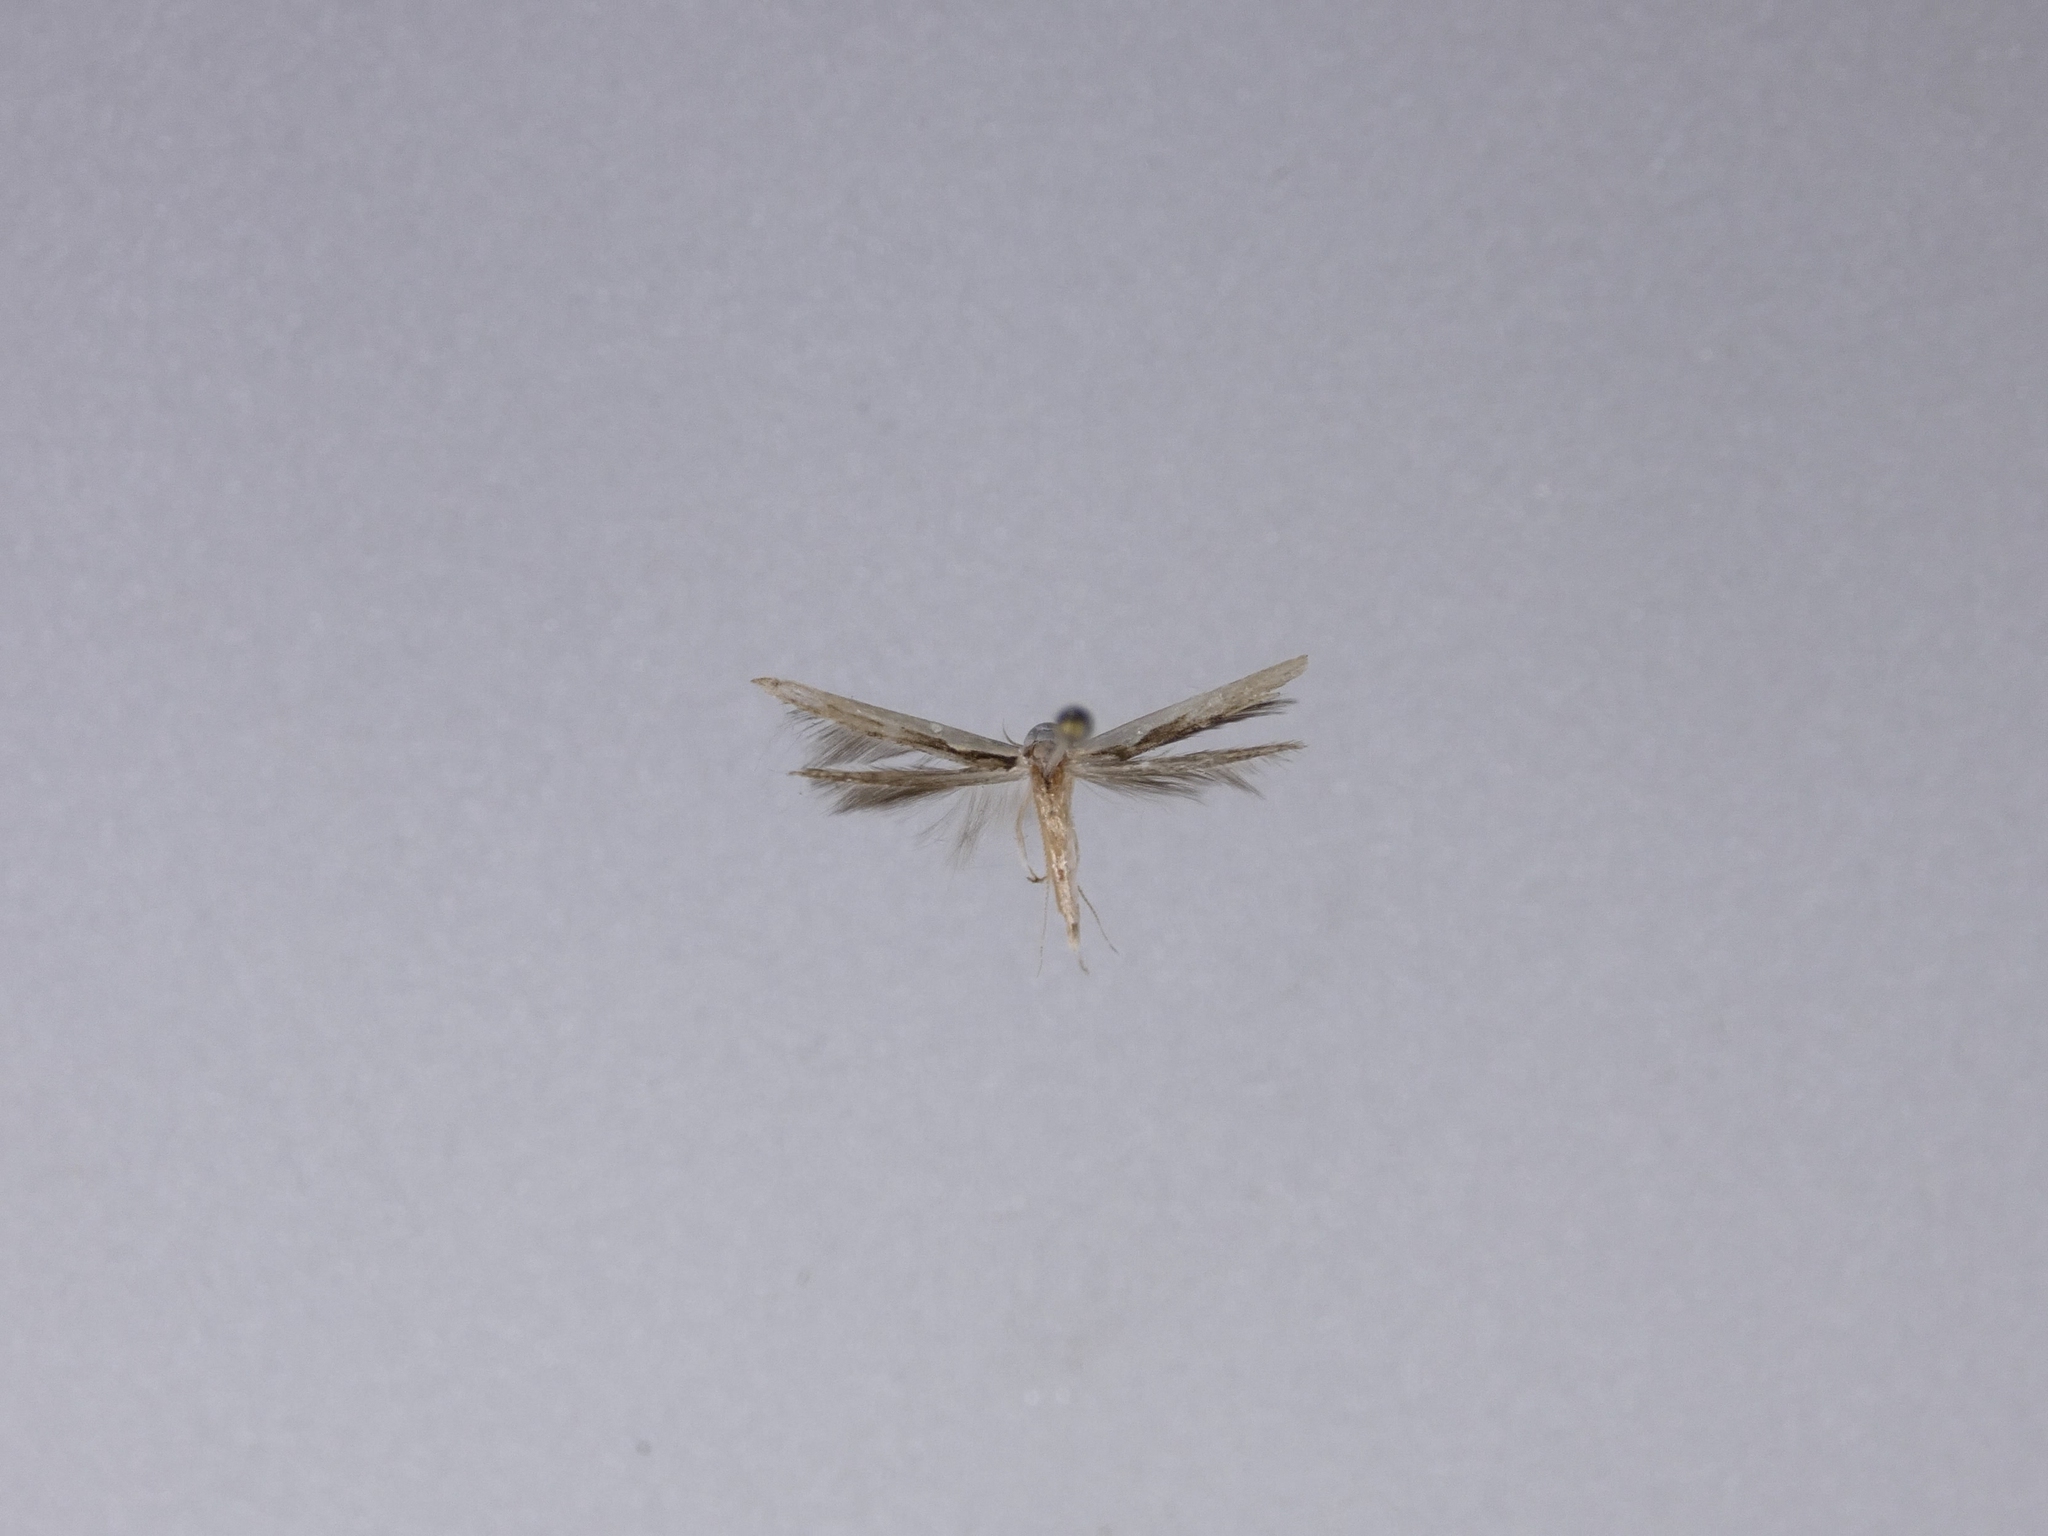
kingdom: Animalia
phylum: Arthropoda
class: Insecta
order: Lepidoptera
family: Roeslerstammiidae
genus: Vanicela
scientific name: Vanicela disjunctella
